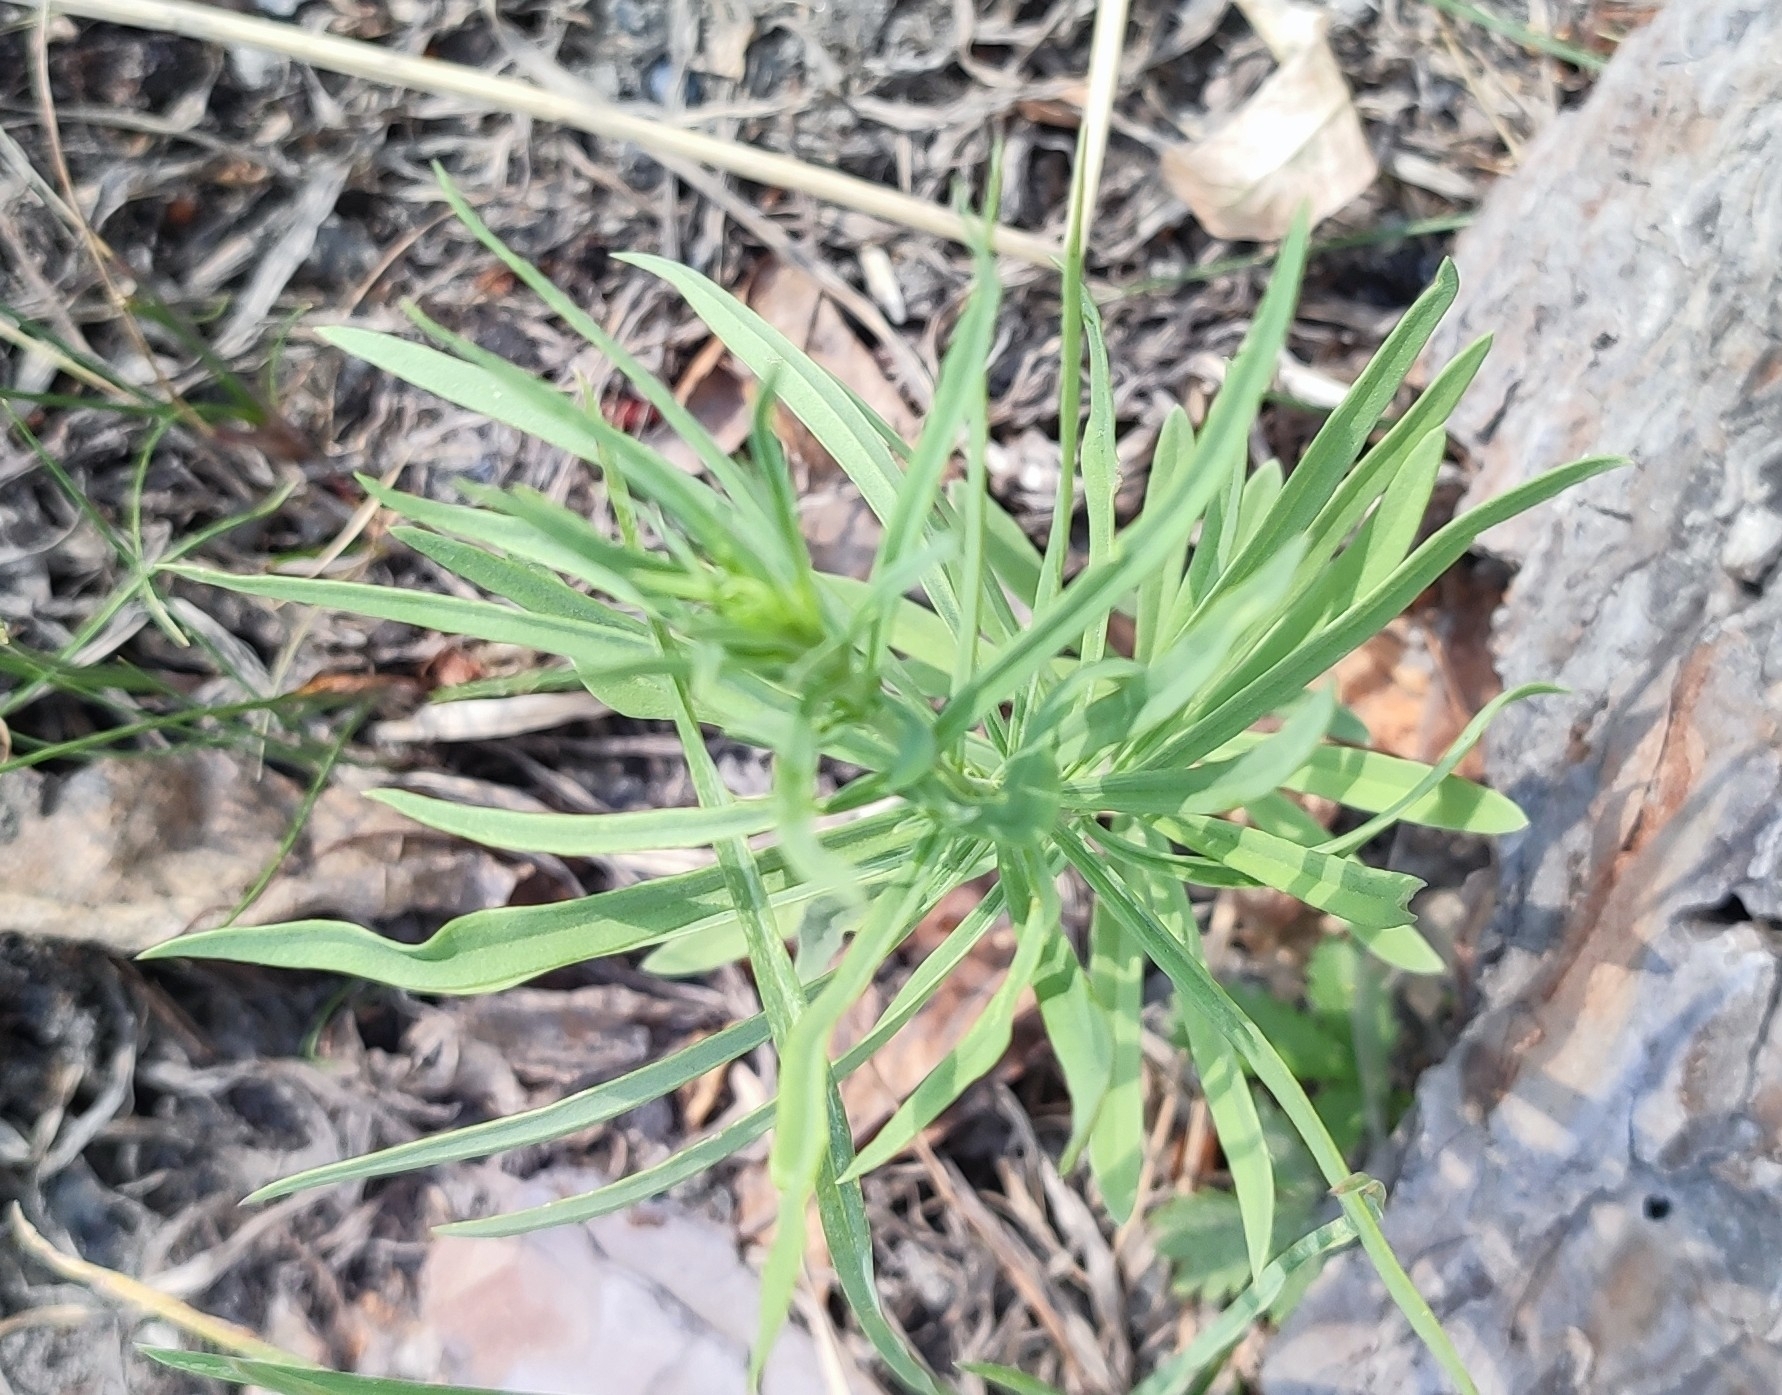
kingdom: Plantae
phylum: Tracheophyta
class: Magnoliopsida
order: Lamiales
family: Plantaginaceae
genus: Linaria
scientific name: Linaria vulgaris
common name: Butter and eggs
